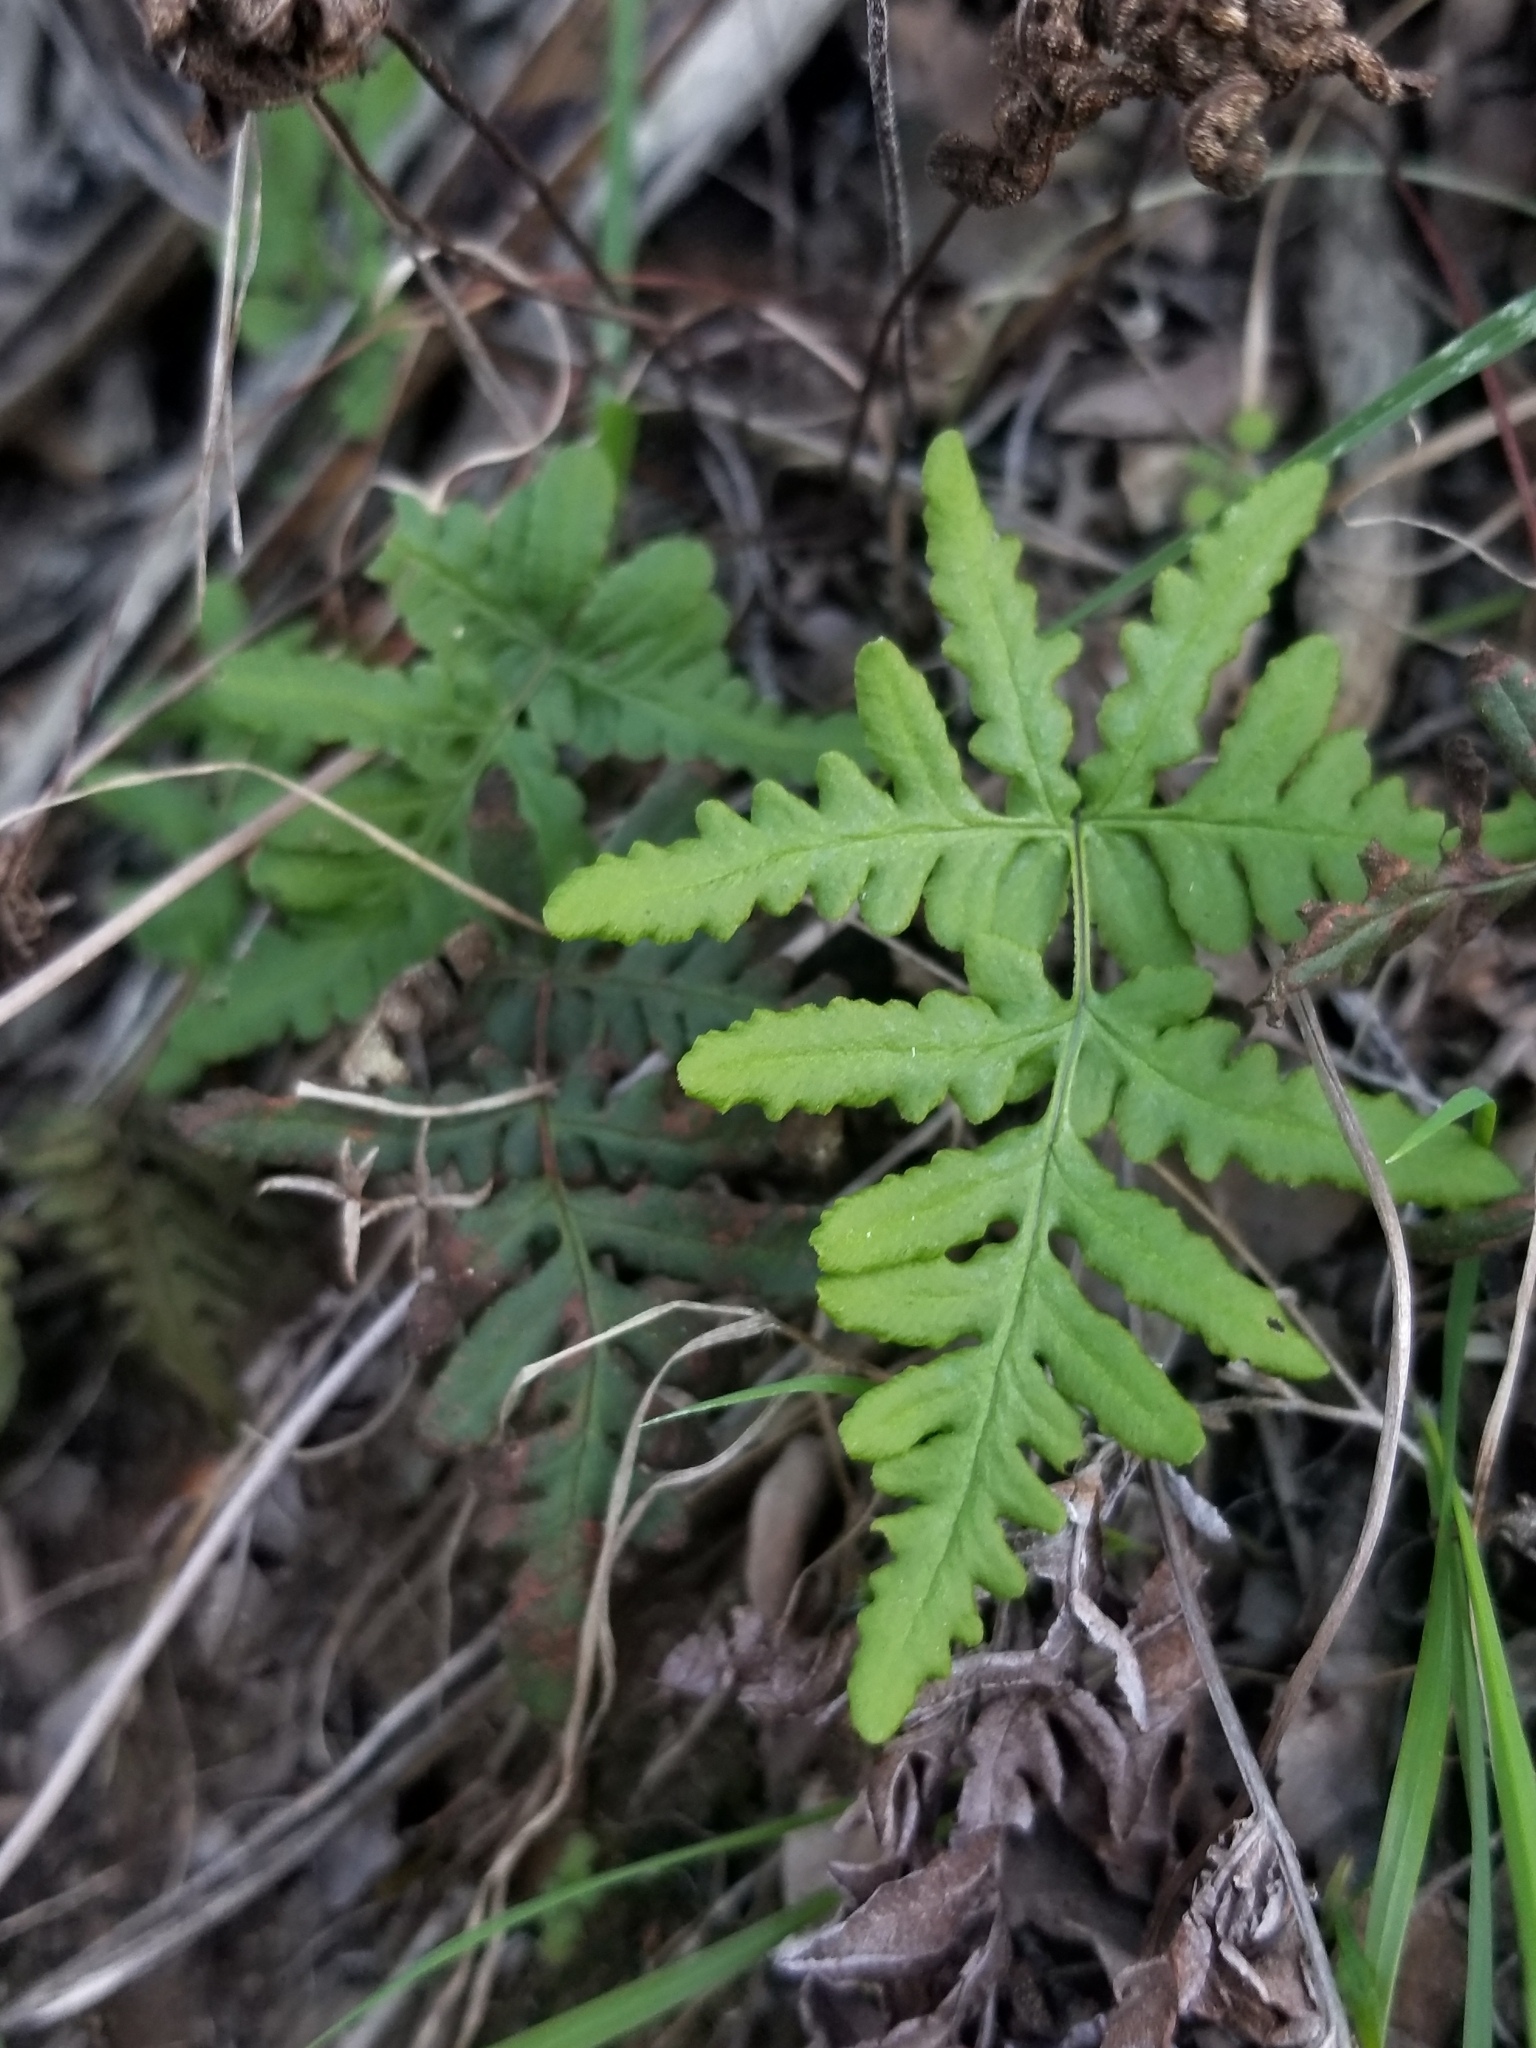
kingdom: Plantae
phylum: Tracheophyta
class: Polypodiopsida
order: Polypodiales
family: Pteridaceae
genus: Pentagramma
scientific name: Pentagramma viscosa
